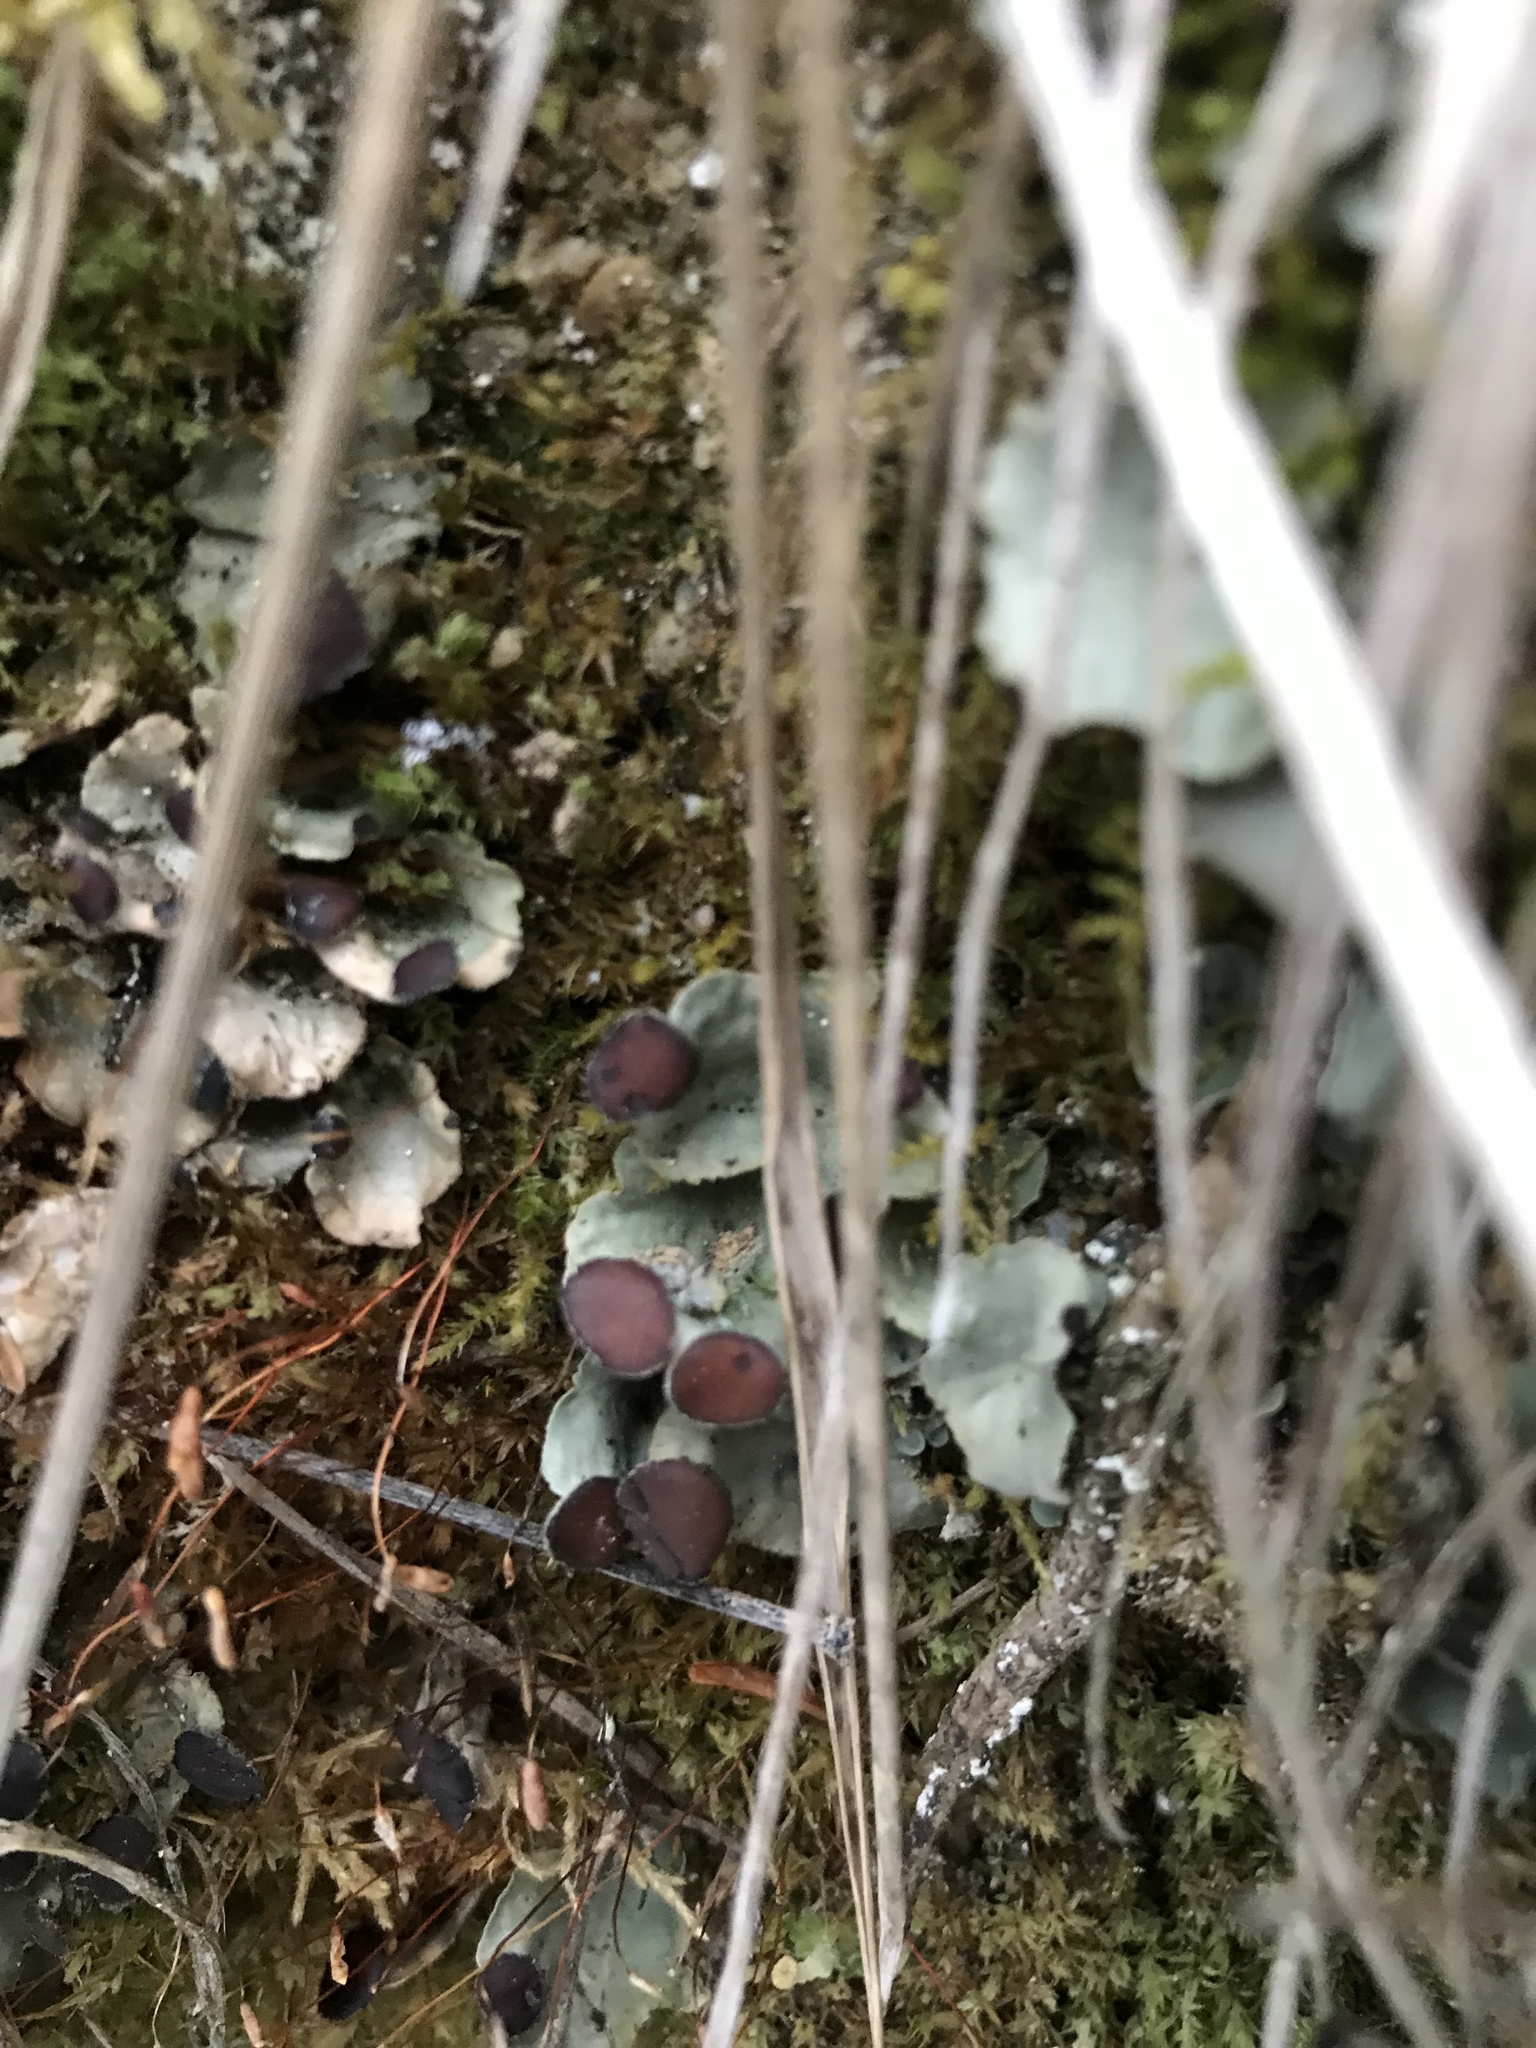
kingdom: Fungi
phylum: Ascomycota
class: Lecanoromycetes
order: Peltigerales
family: Peltigeraceae
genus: Peltigera
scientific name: Peltigera venosa
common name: Pixie gowns lichen
